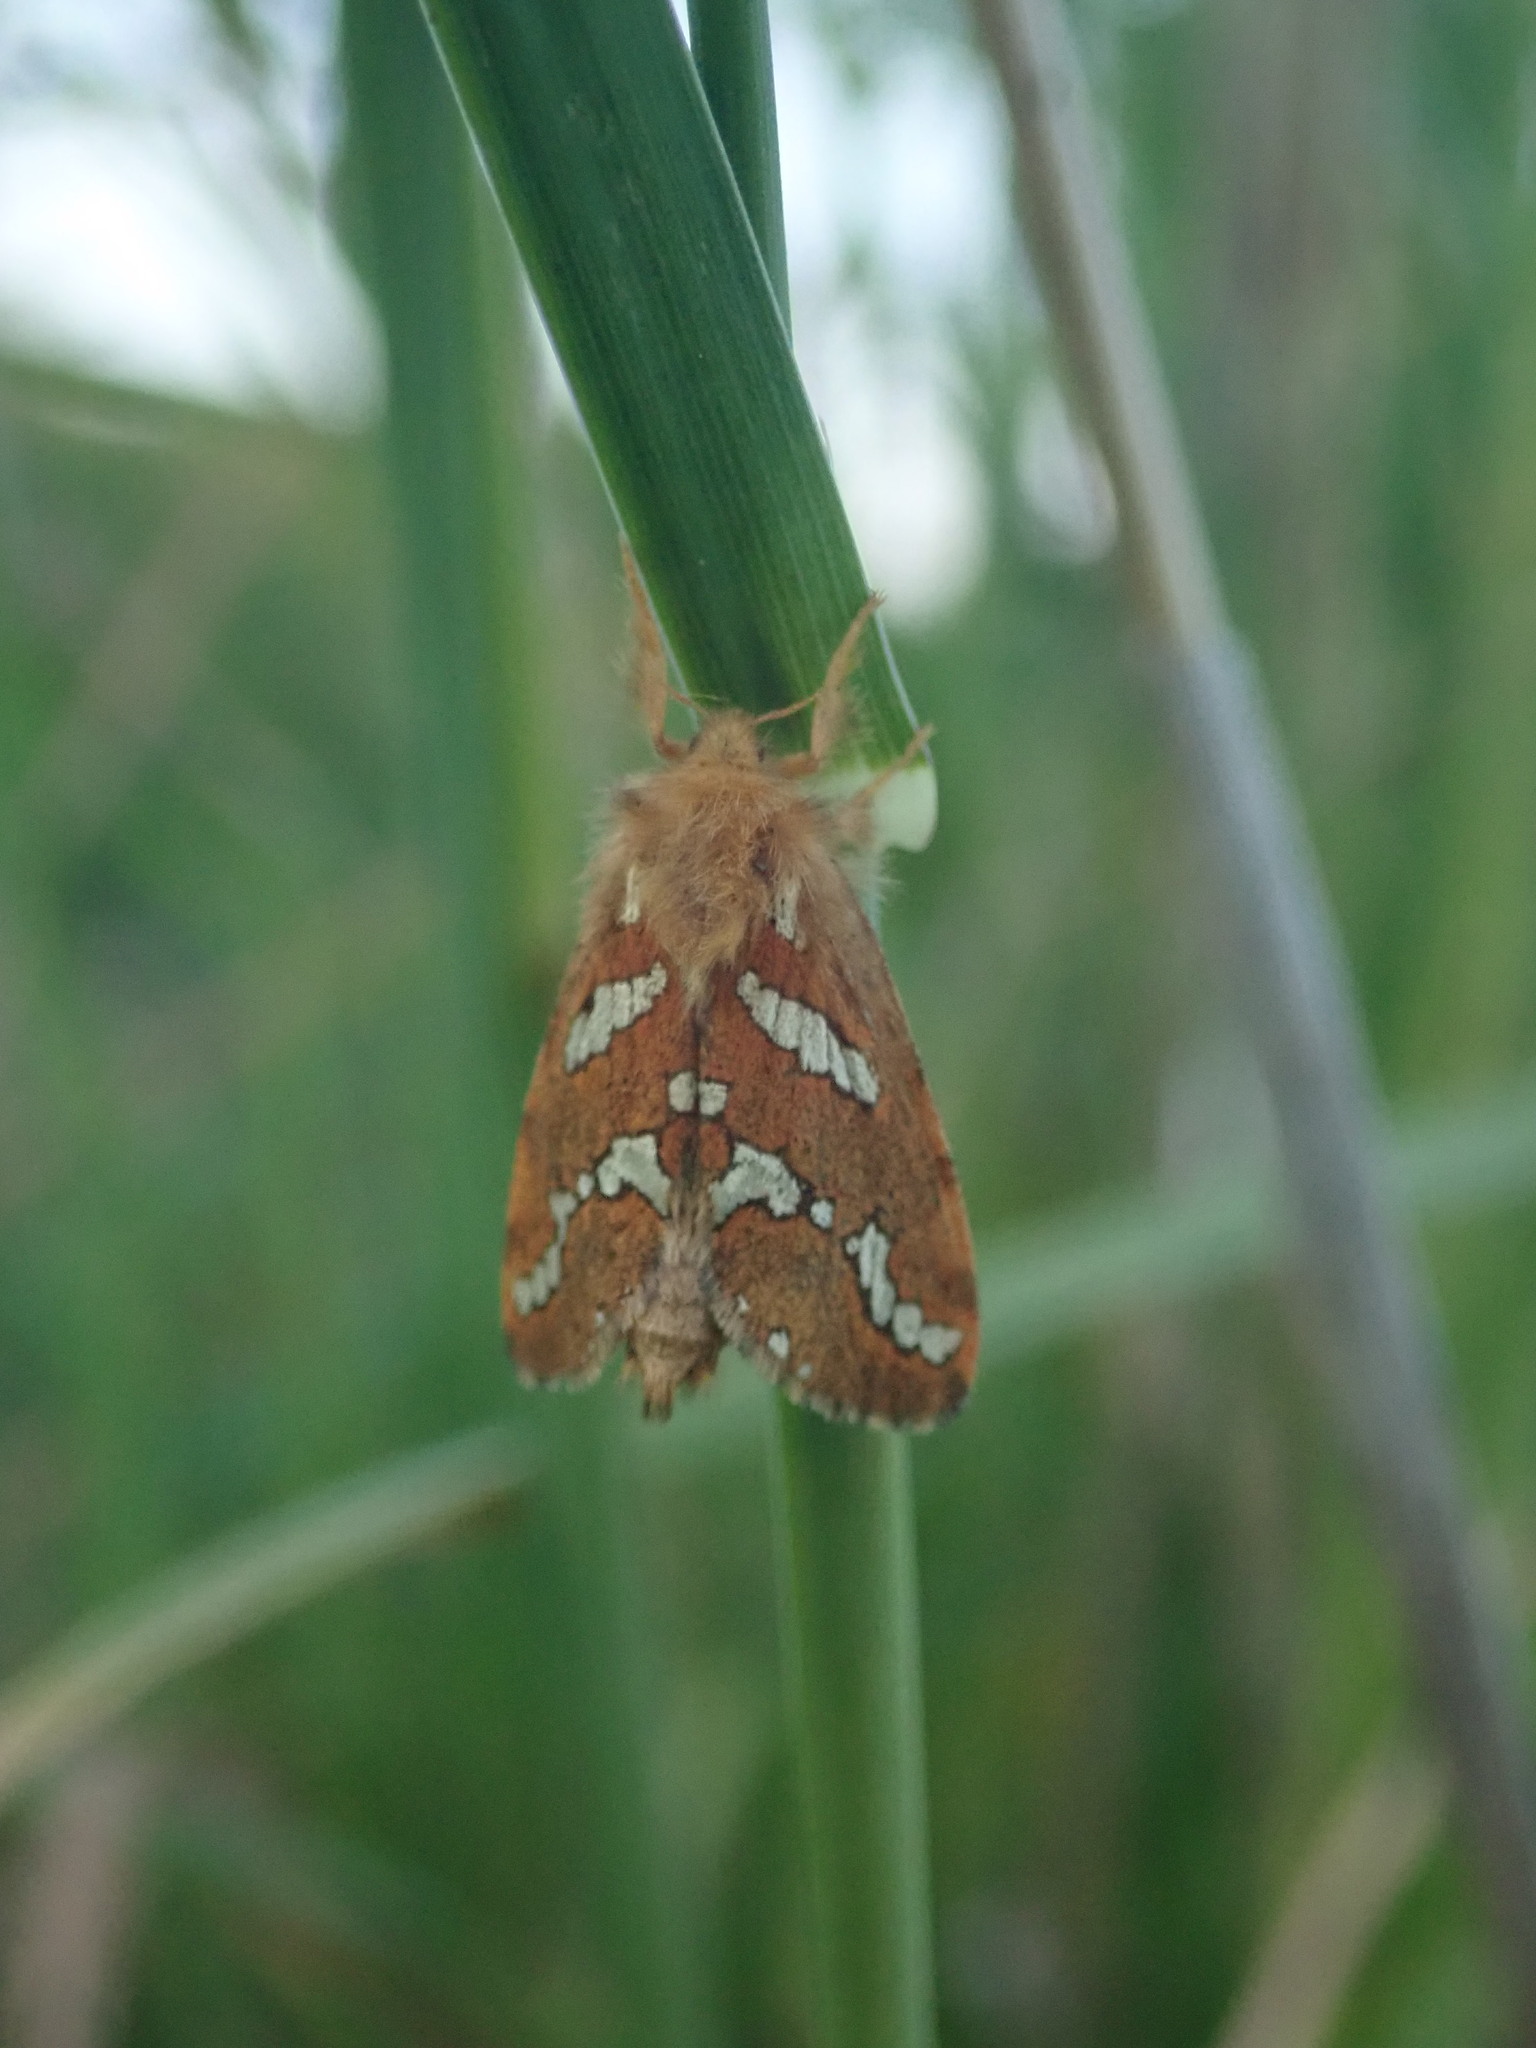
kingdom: Animalia
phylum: Arthropoda
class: Insecta
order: Lepidoptera
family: Hepialidae
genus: Phymatopus
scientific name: Phymatopus hecta
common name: Gold swift
